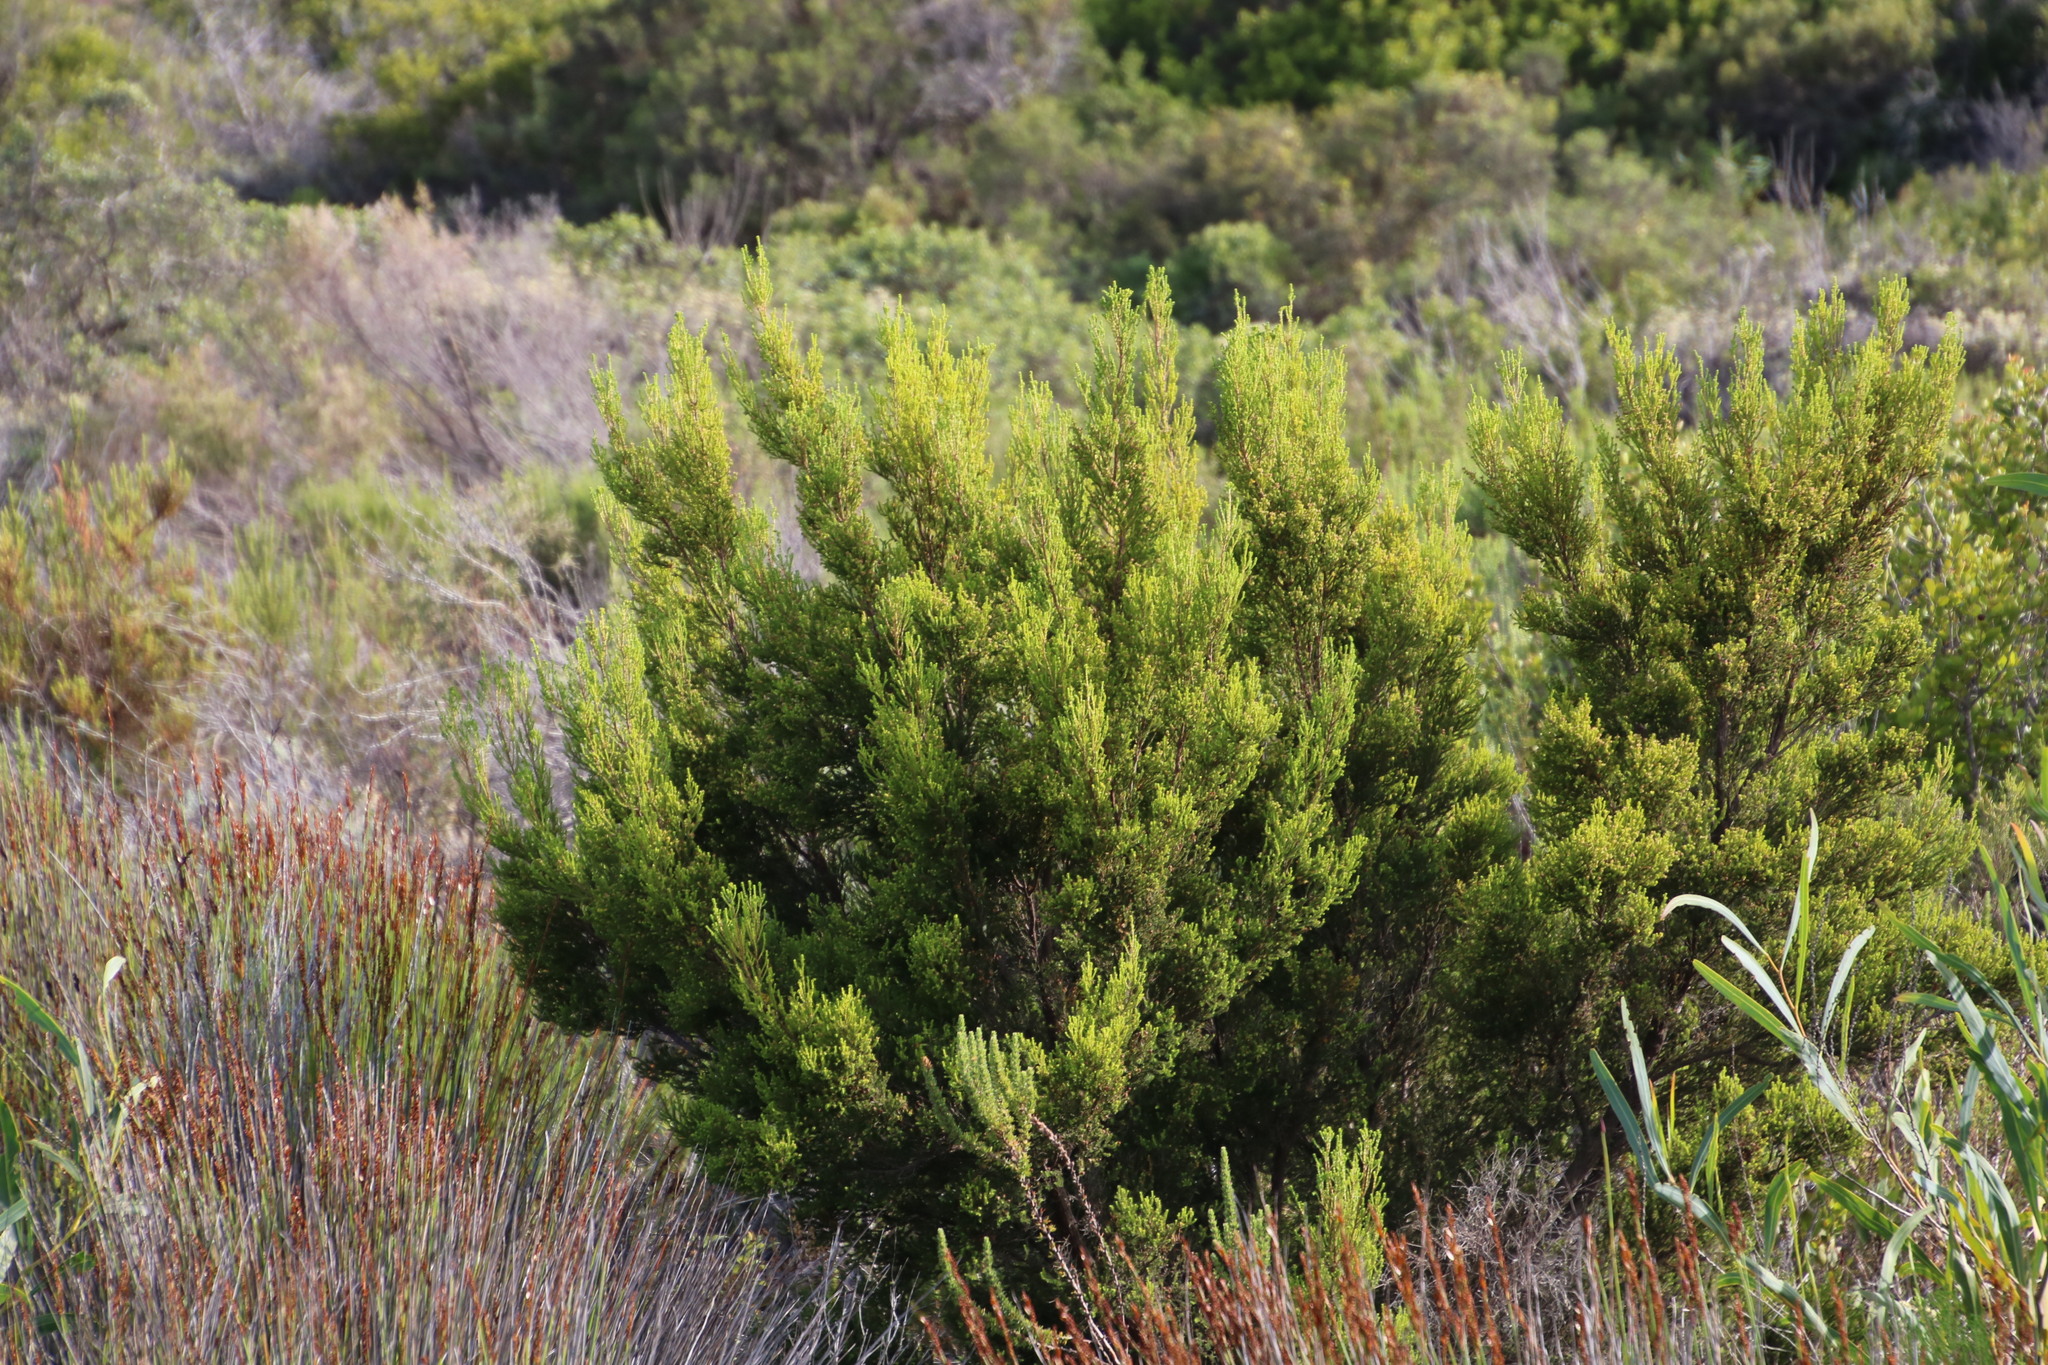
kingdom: Plantae
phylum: Tracheophyta
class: Magnoliopsida
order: Ericales
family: Ericaceae
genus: Erica
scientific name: Erica tristis
